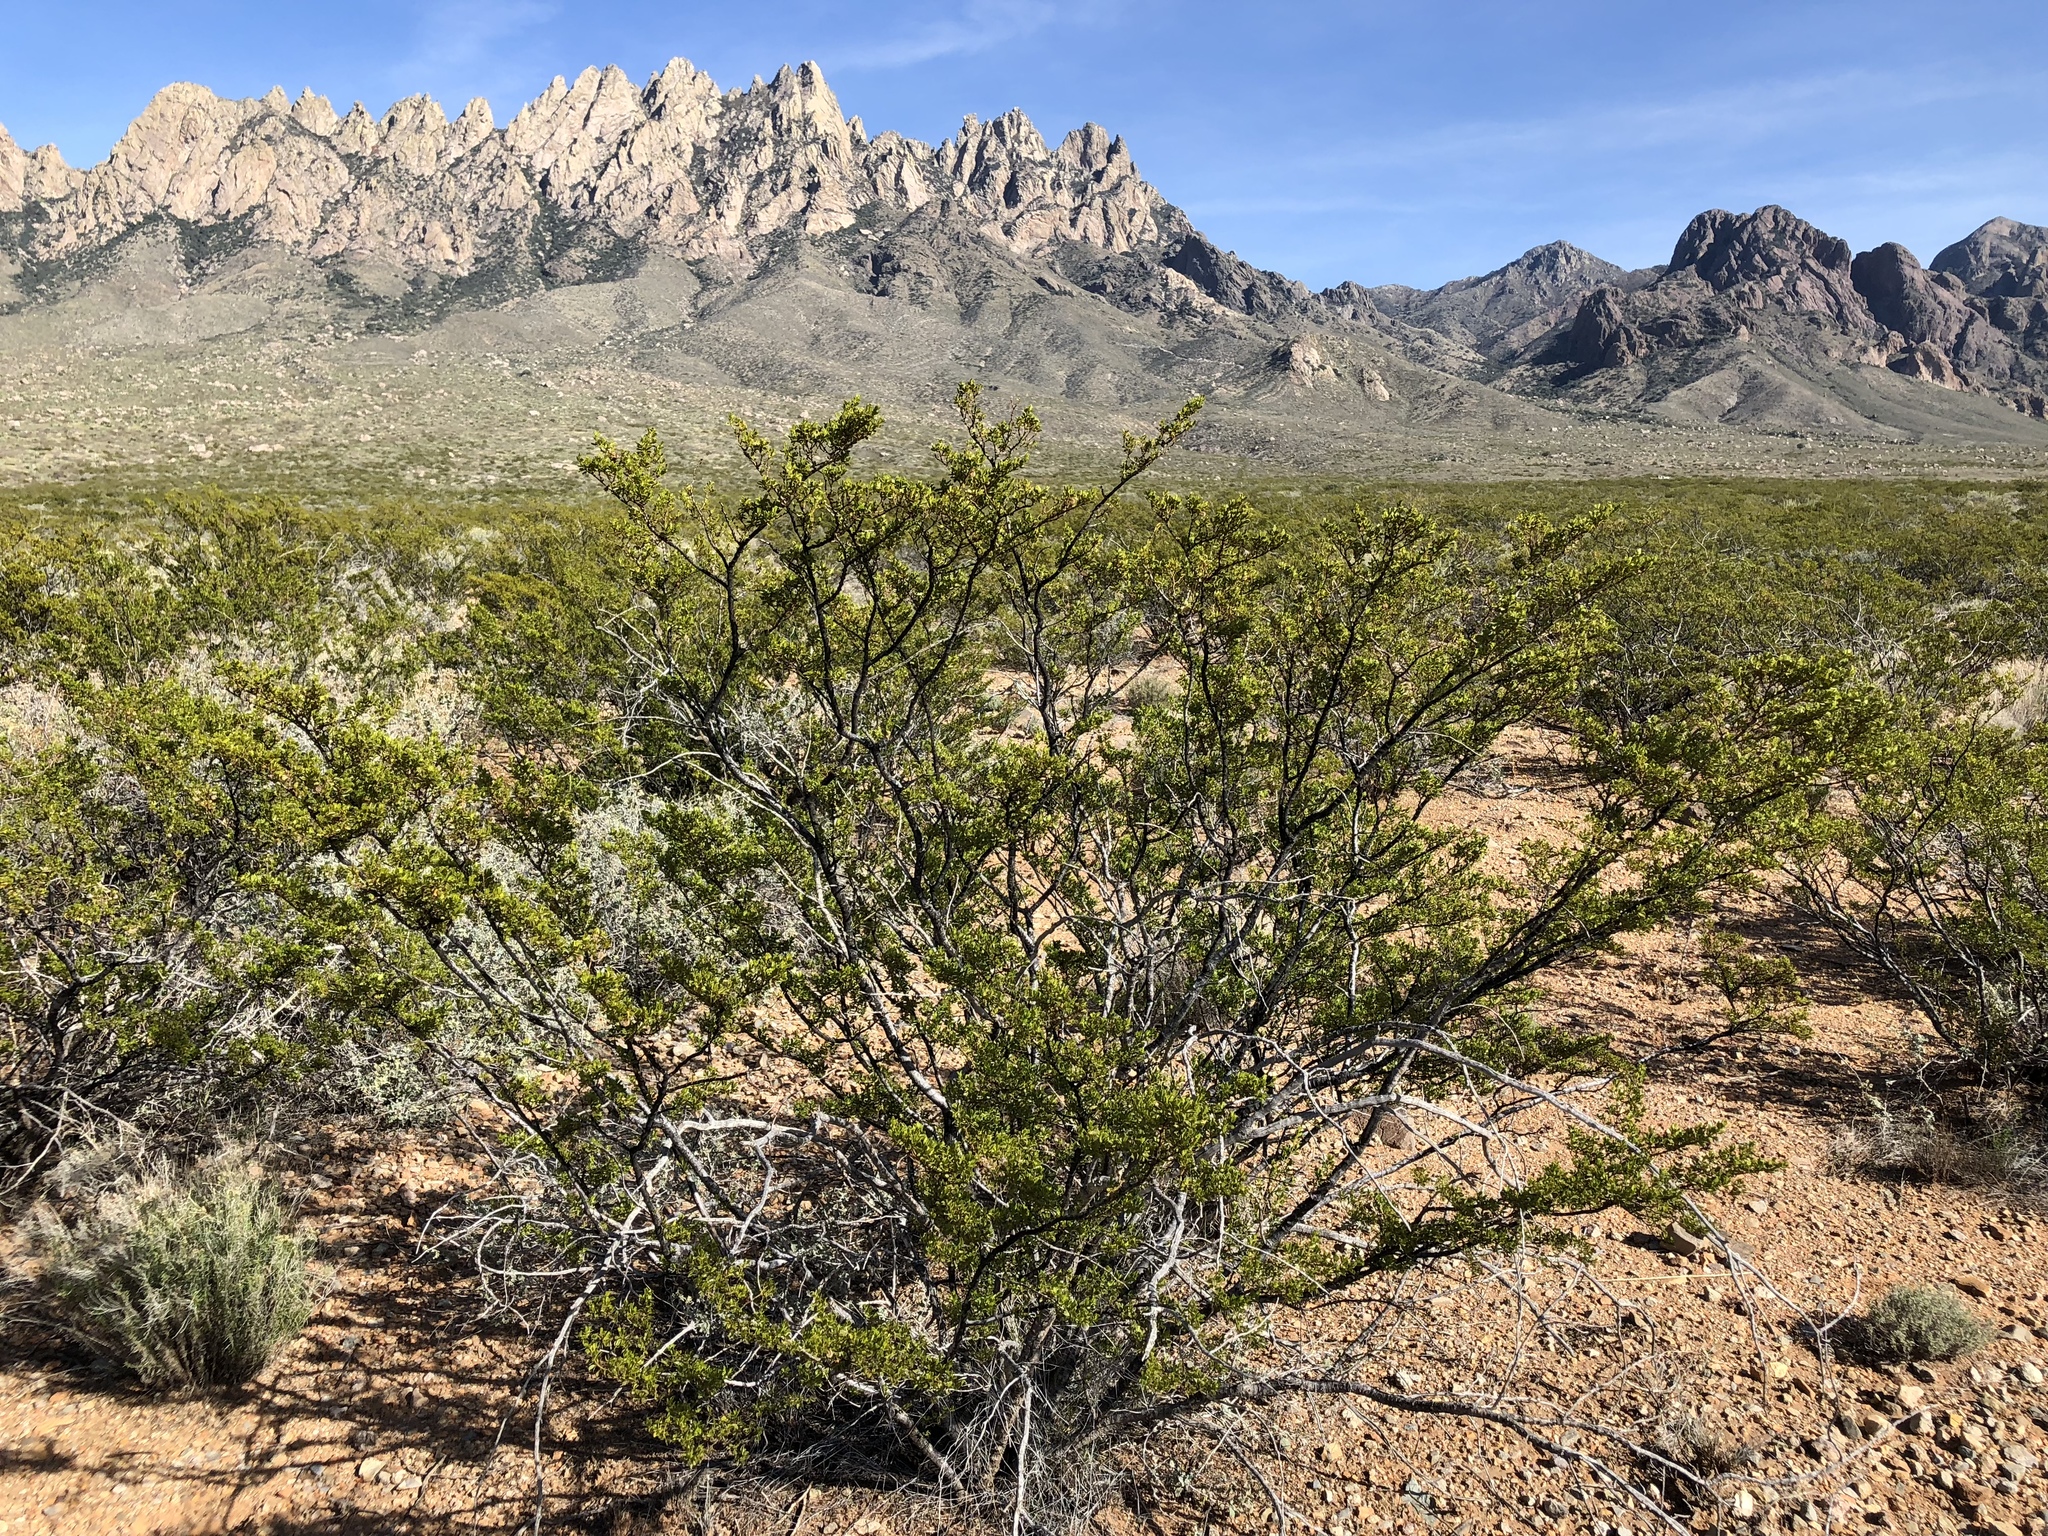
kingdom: Plantae
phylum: Tracheophyta
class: Magnoliopsida
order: Zygophyllales
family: Zygophyllaceae
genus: Larrea
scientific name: Larrea tridentata
